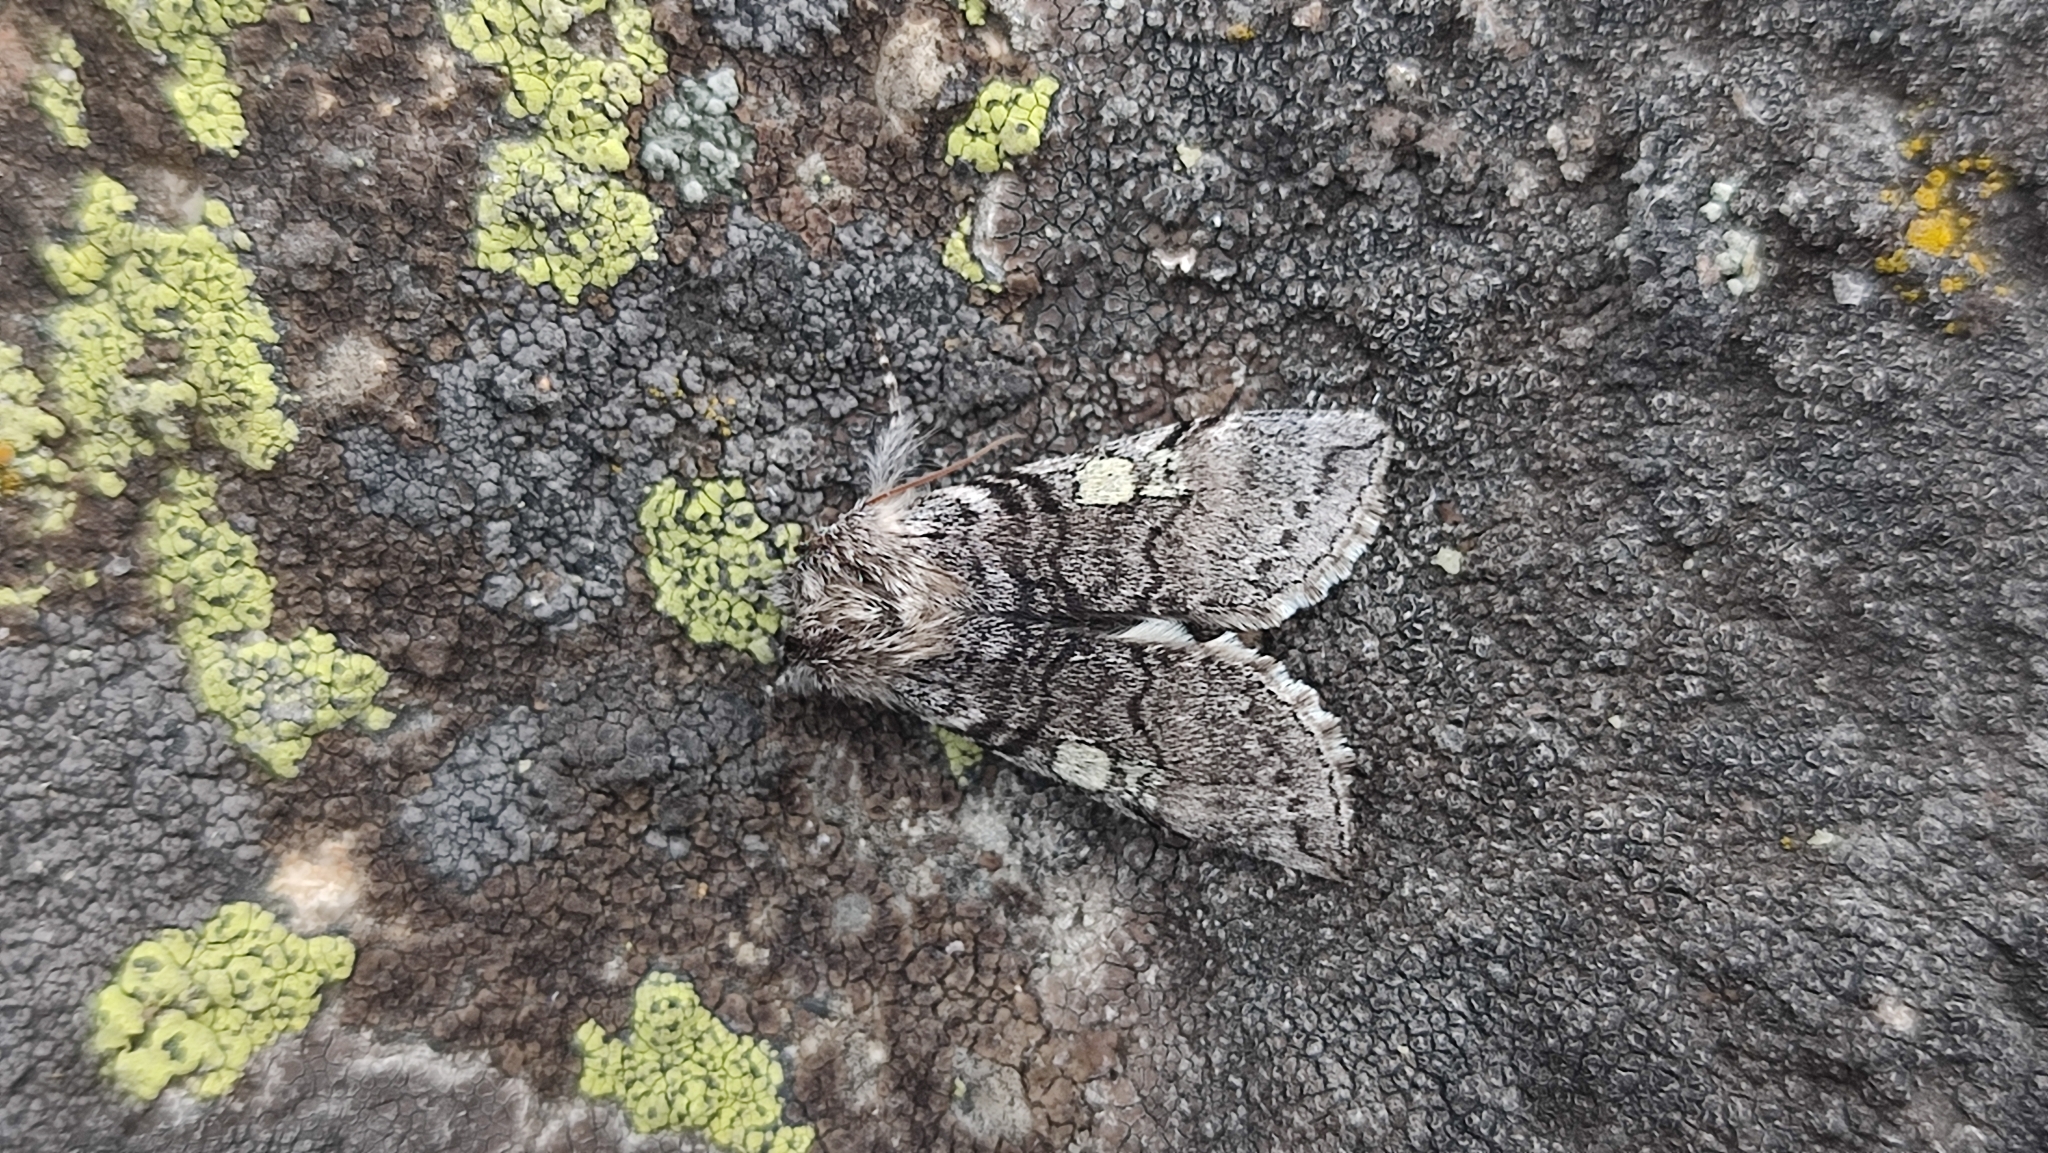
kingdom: Animalia
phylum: Arthropoda
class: Insecta
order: Lepidoptera
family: Drepanidae
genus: Achlya
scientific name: Achlya flavicornis
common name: Yellow horned
